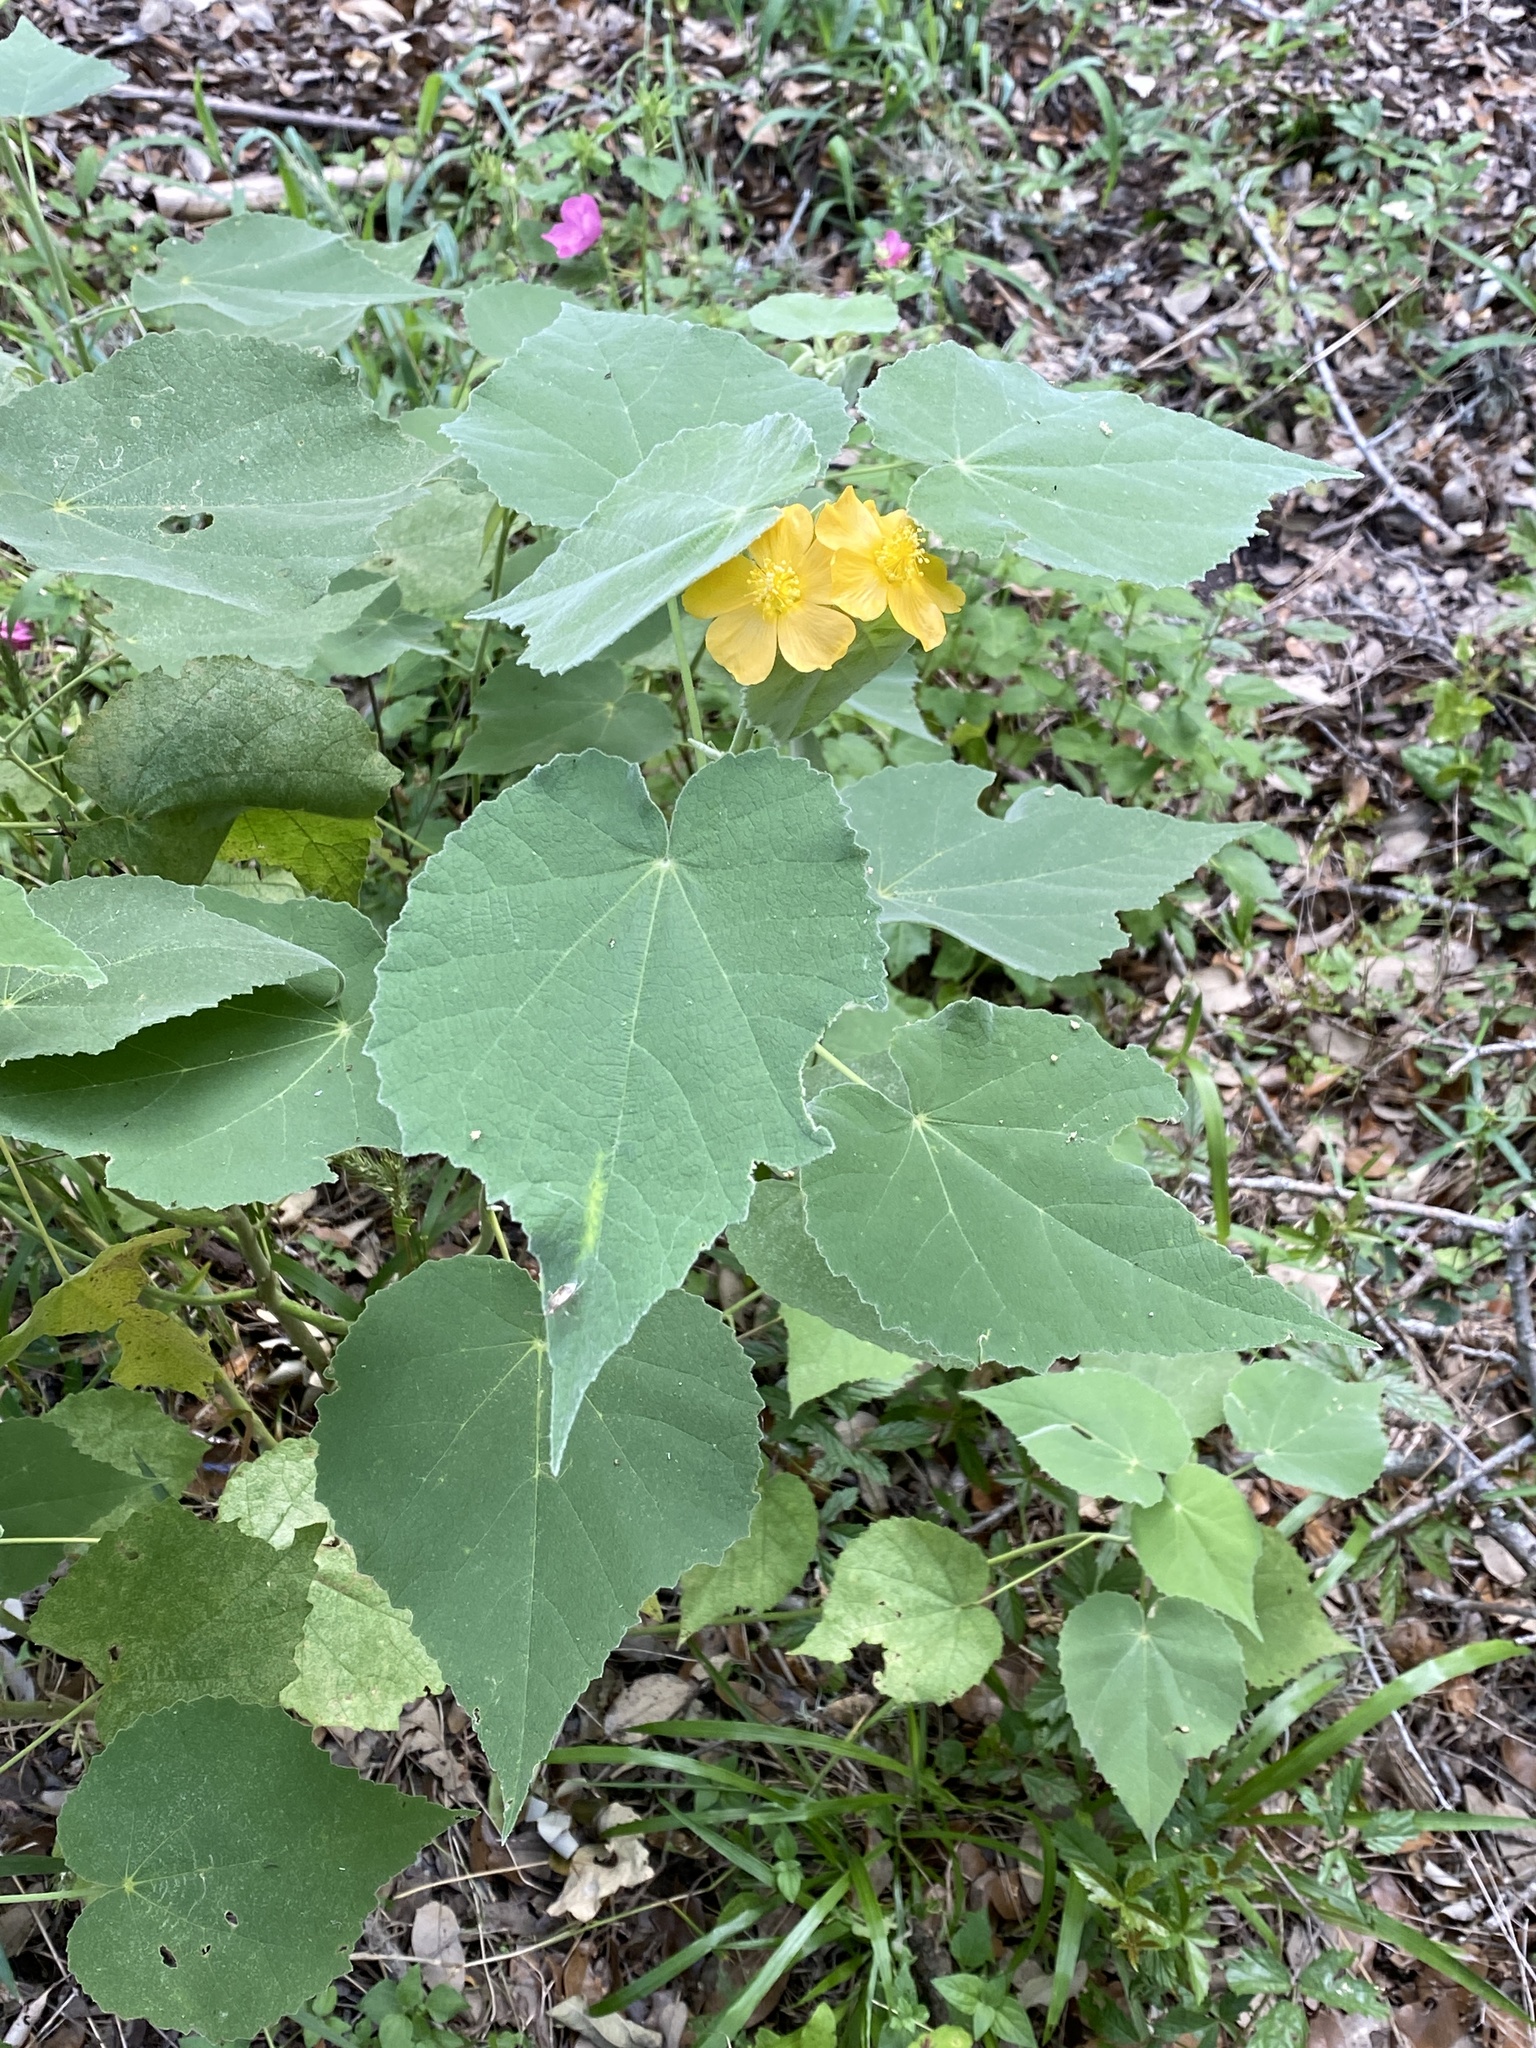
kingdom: Plantae
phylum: Tracheophyta
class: Magnoliopsida
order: Malvales
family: Malvaceae
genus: Allowissadula
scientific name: Allowissadula holosericea
